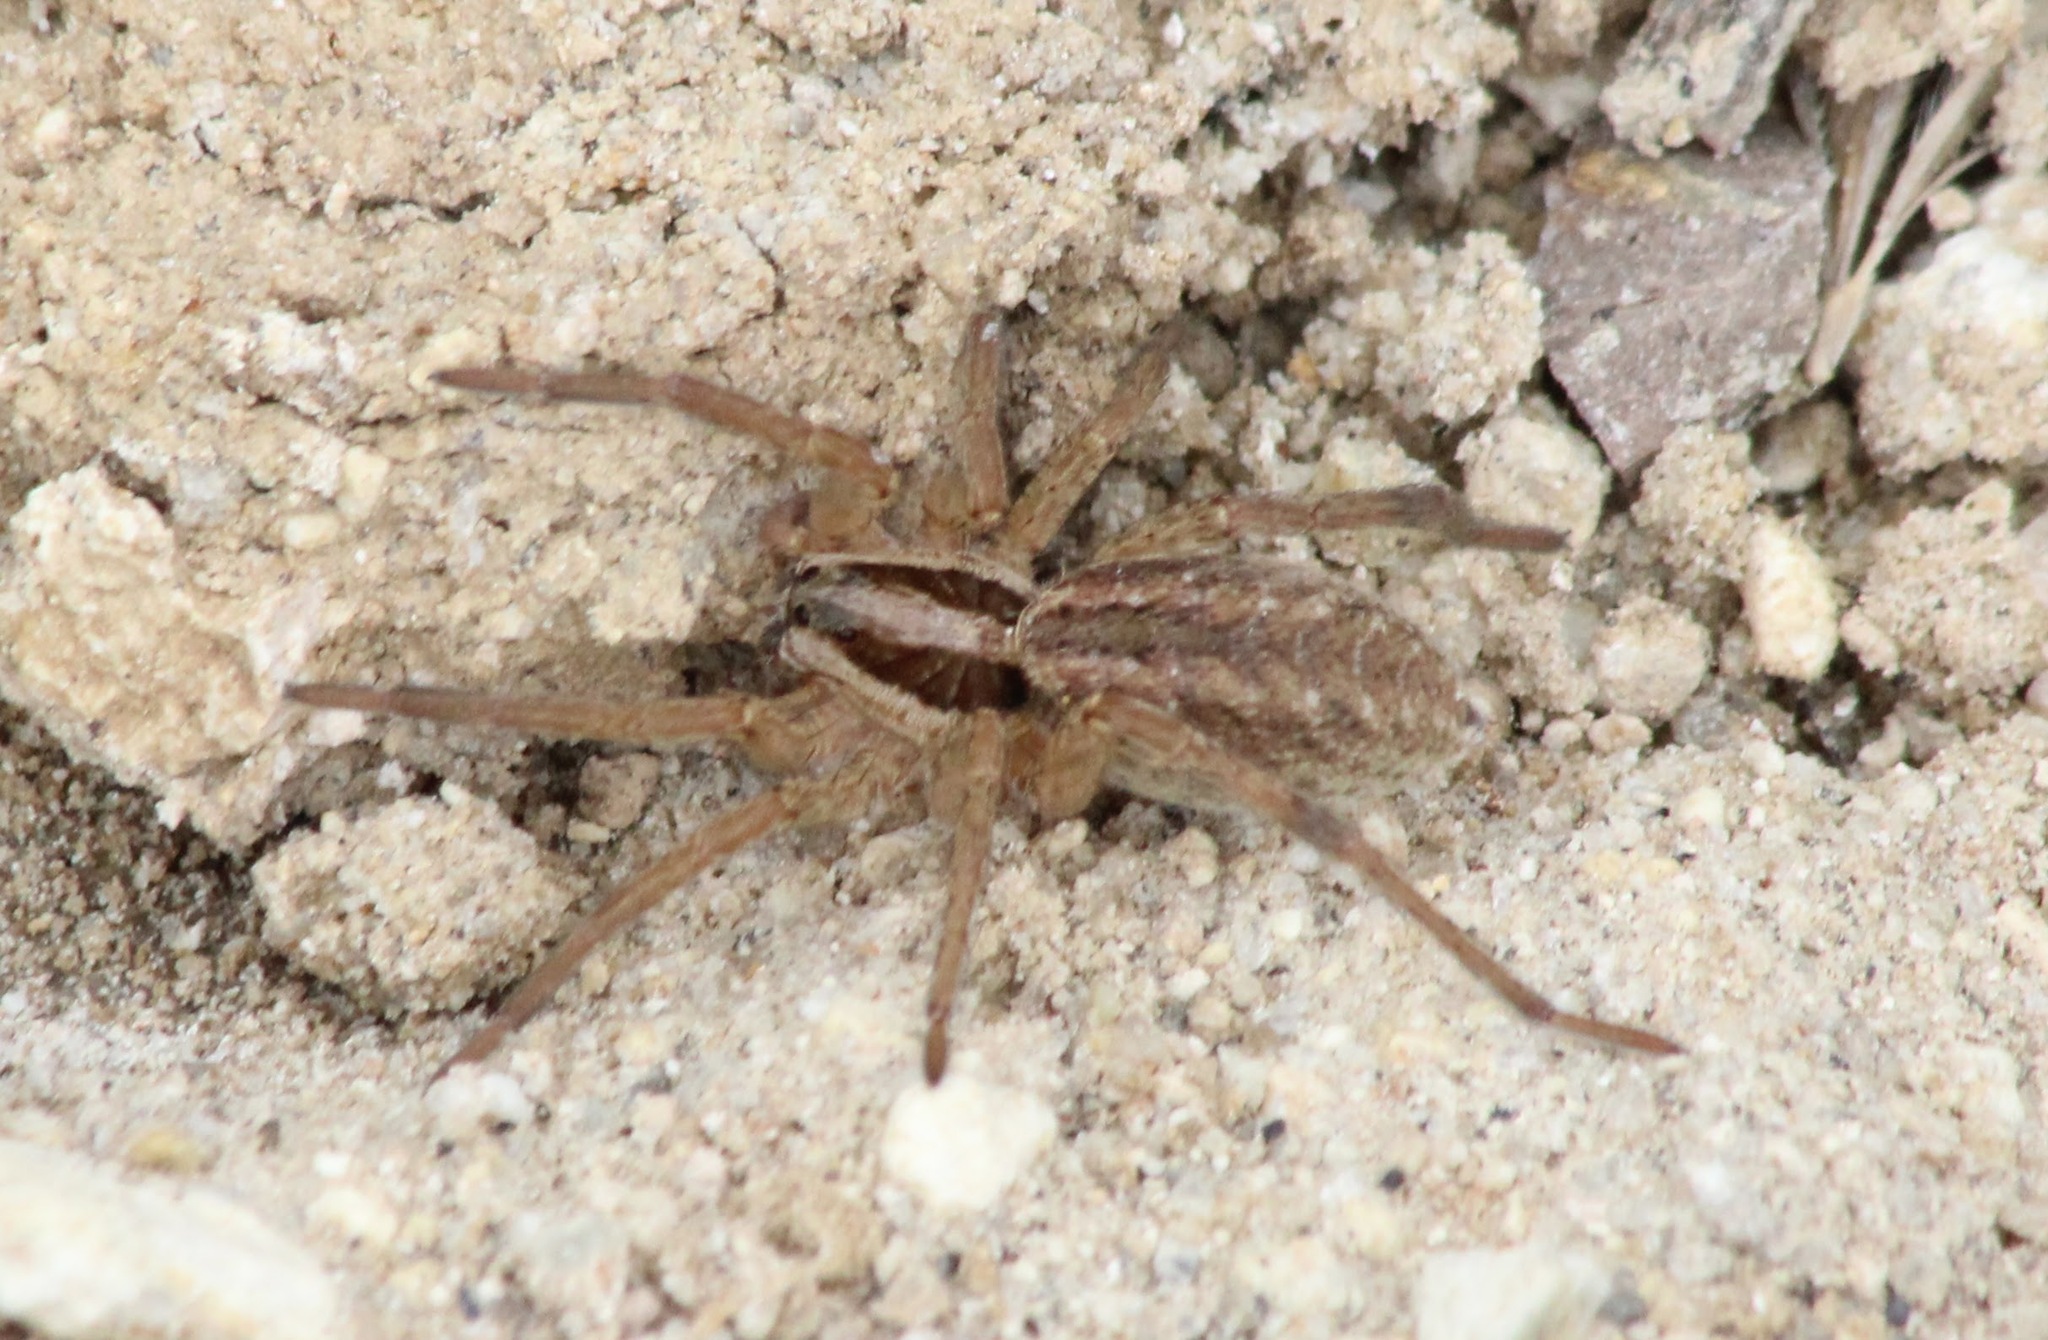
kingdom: Animalia
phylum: Arthropoda
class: Arachnida
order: Araneae
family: Lycosidae
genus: Hogna
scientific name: Hogna radiata
